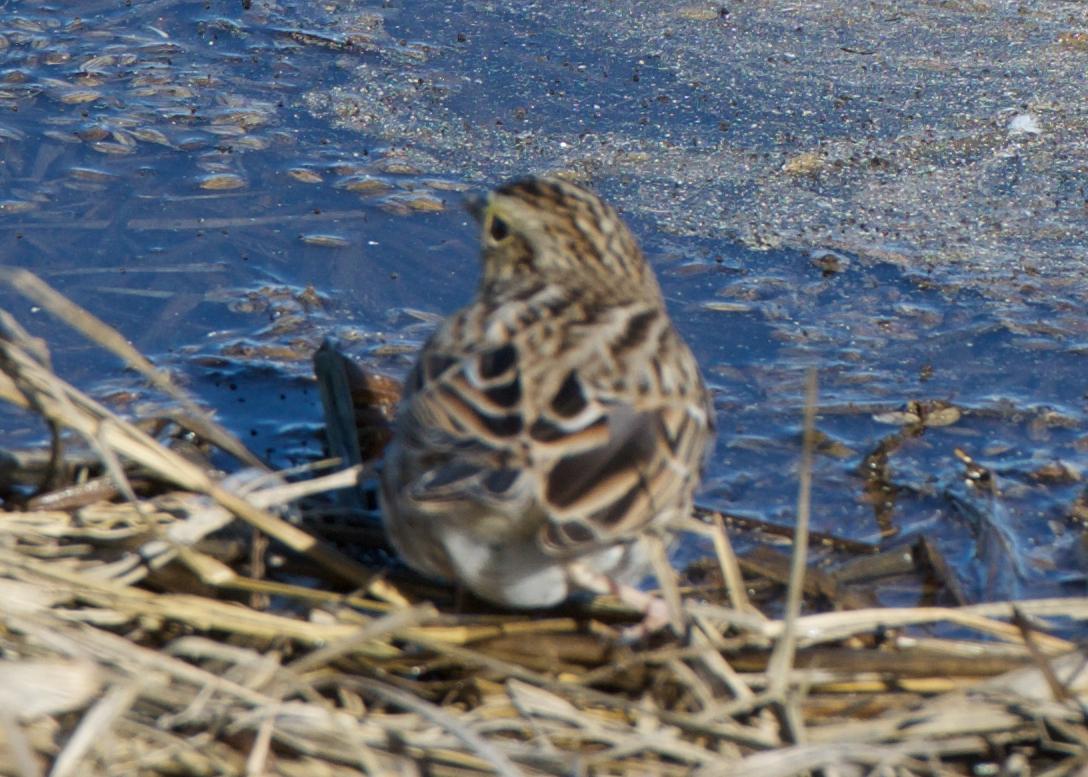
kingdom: Animalia
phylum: Chordata
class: Aves
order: Passeriformes
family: Passerellidae
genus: Passerculus
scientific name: Passerculus sandwichensis
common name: Savannah sparrow
